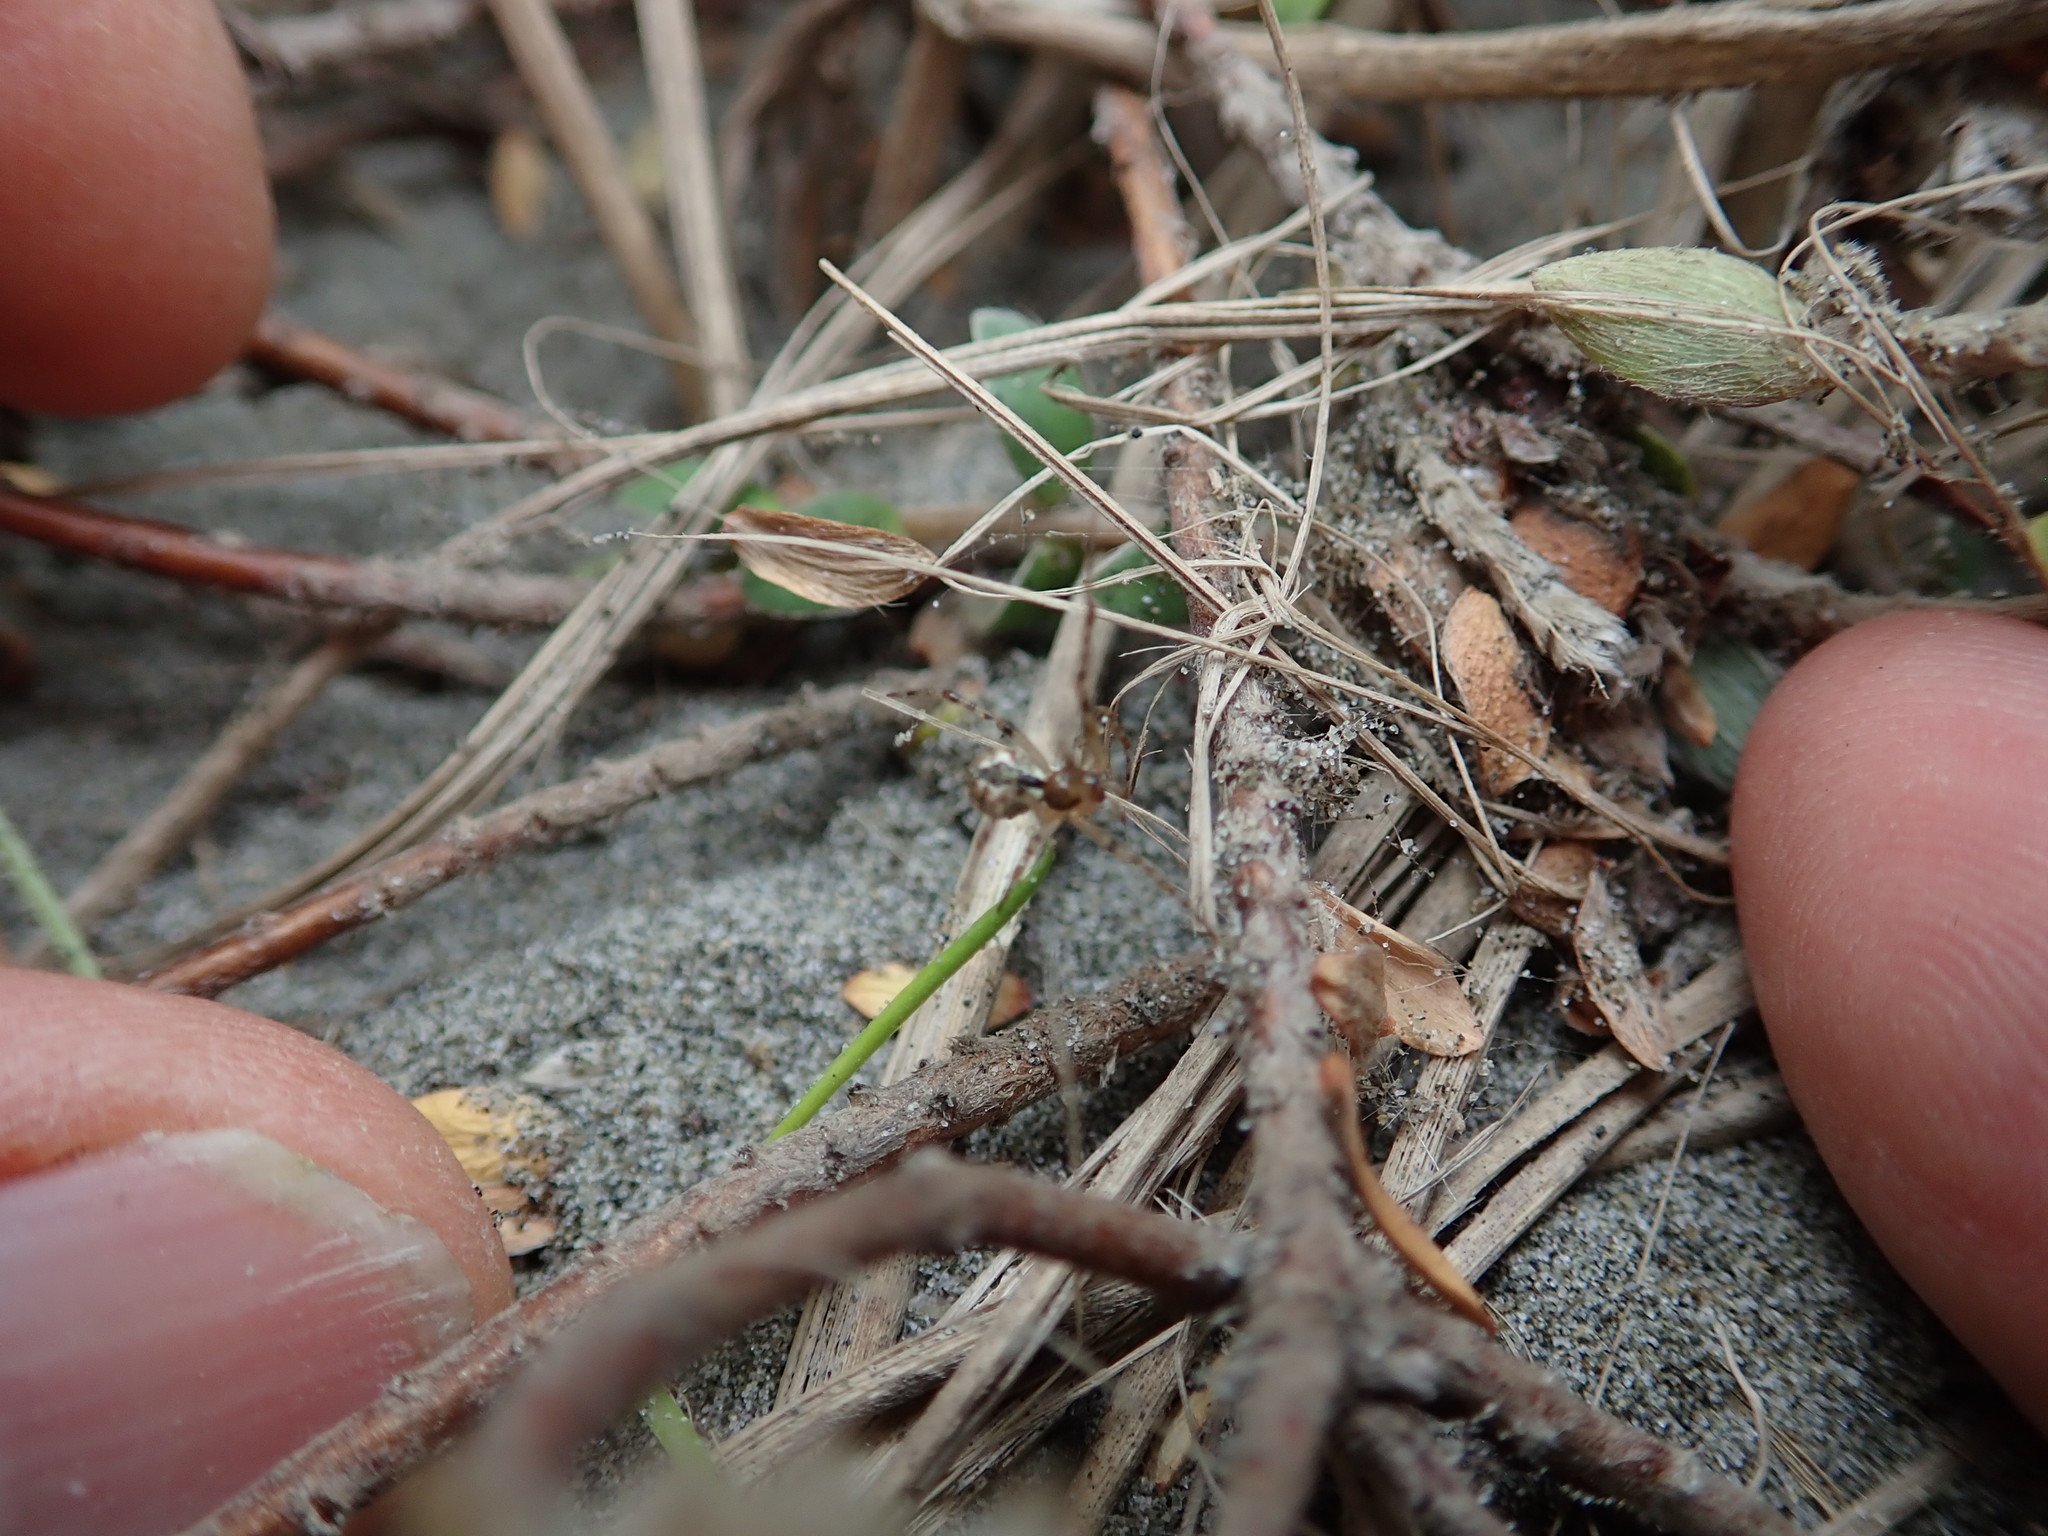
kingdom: Animalia
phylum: Arthropoda
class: Arachnida
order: Araneae
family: Theridiidae
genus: Cryptachaea
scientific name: Cryptachaea veruculata
